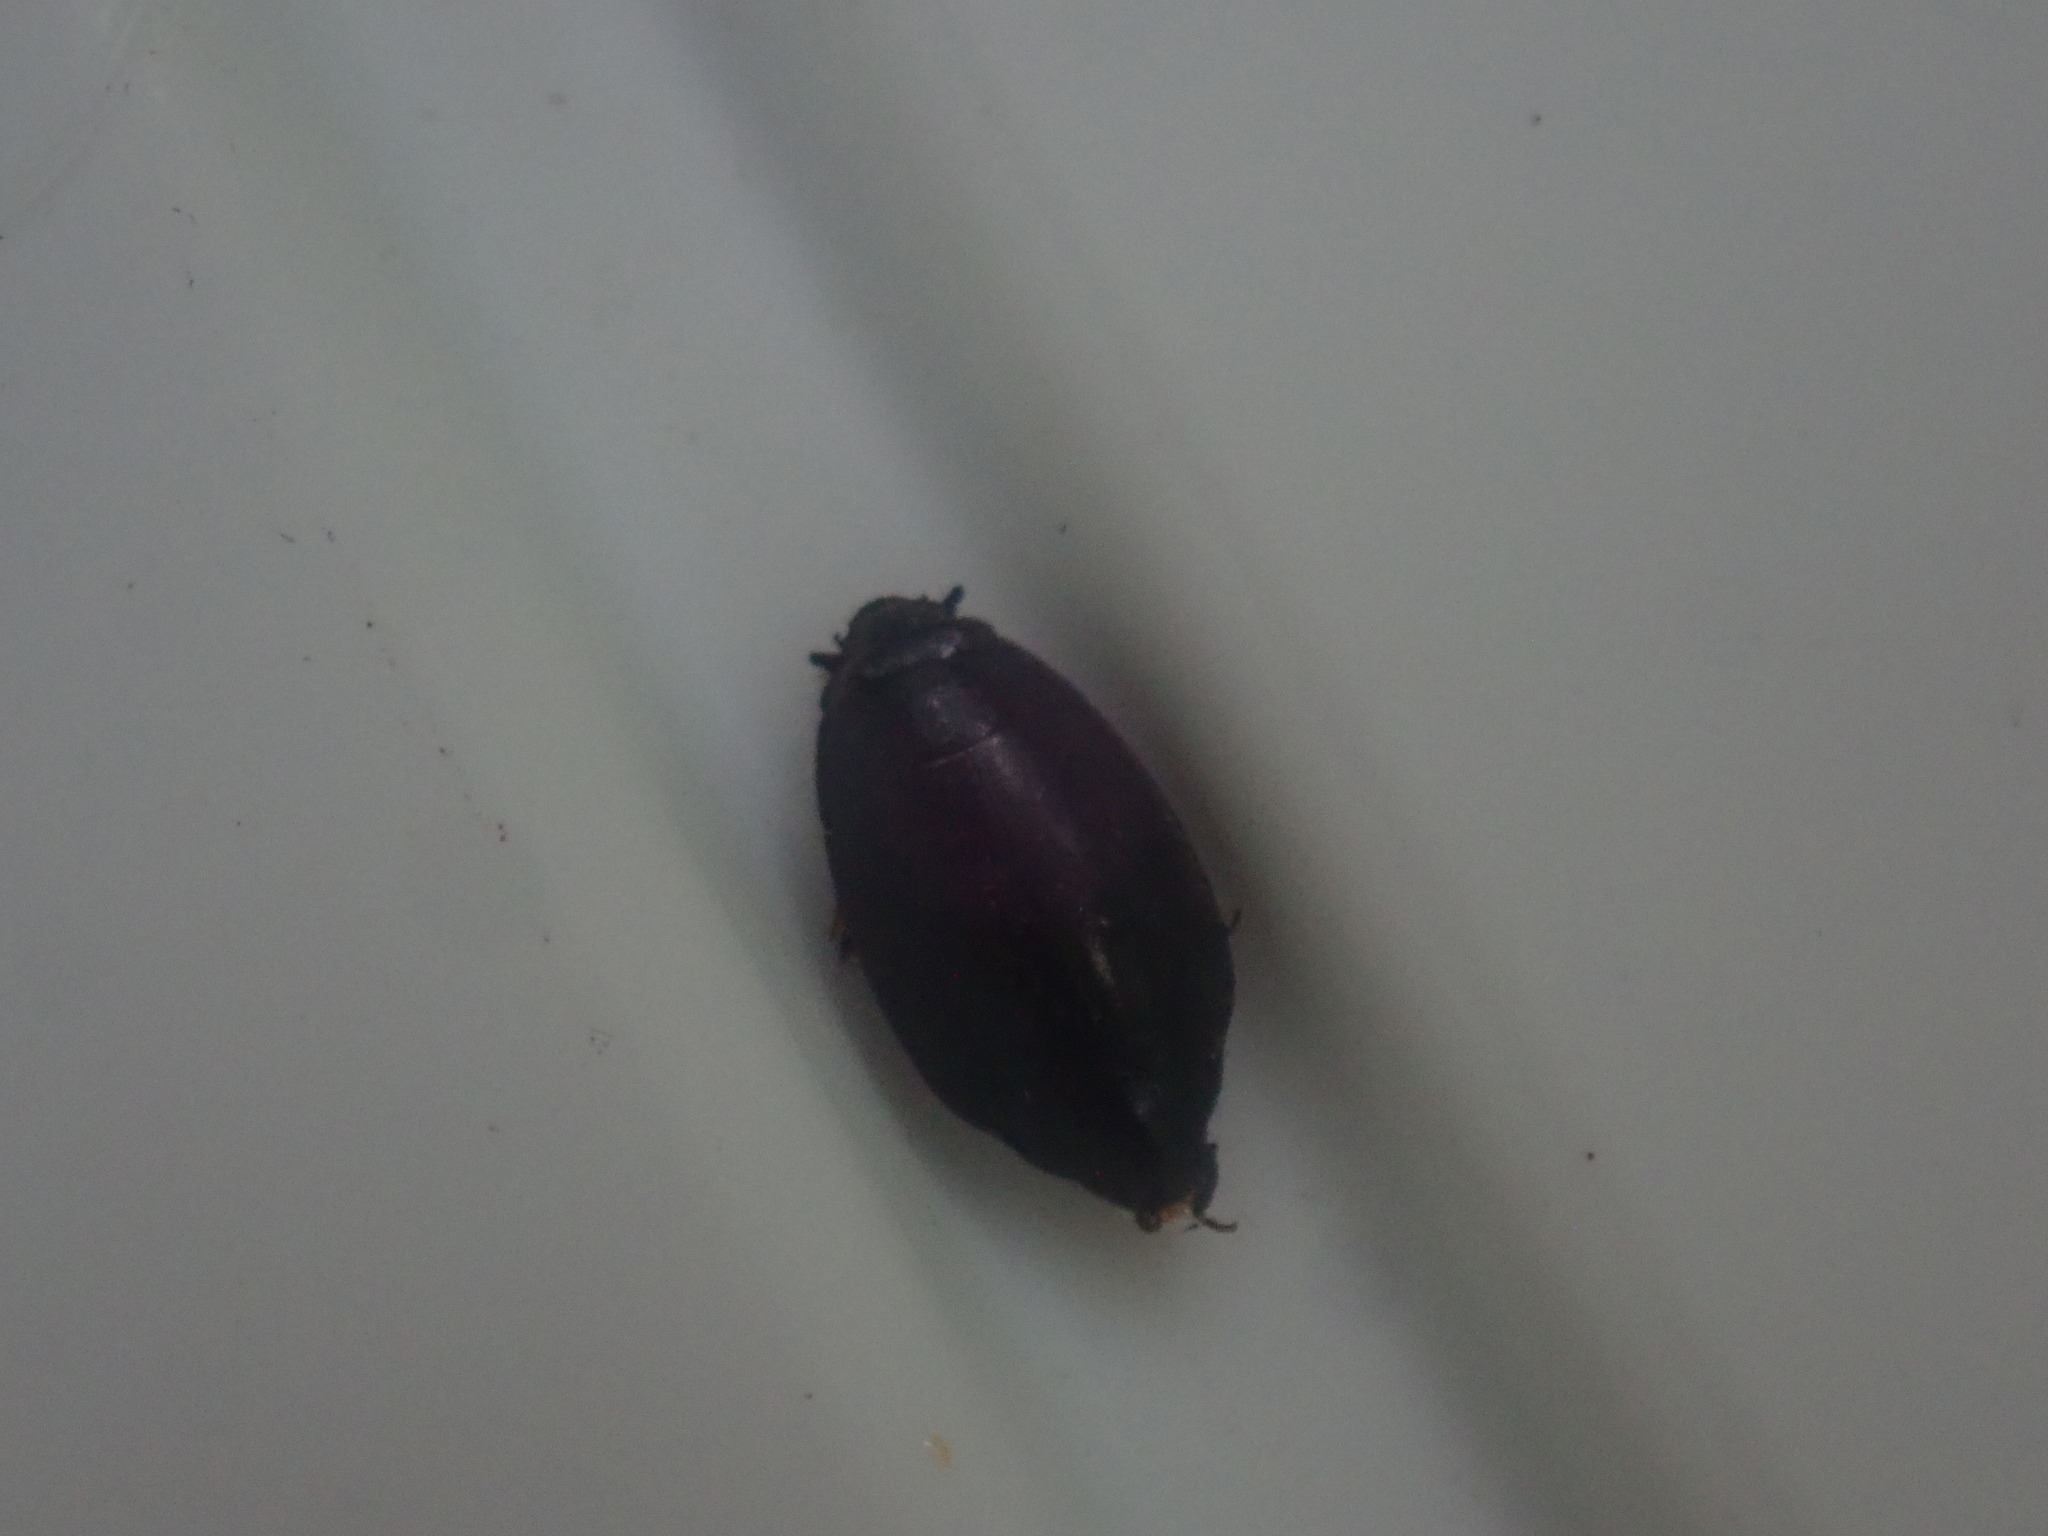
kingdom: Animalia
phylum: Arthropoda
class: Insecta
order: Coleoptera
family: Gyrinidae
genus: Dineutus
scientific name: Dineutus
